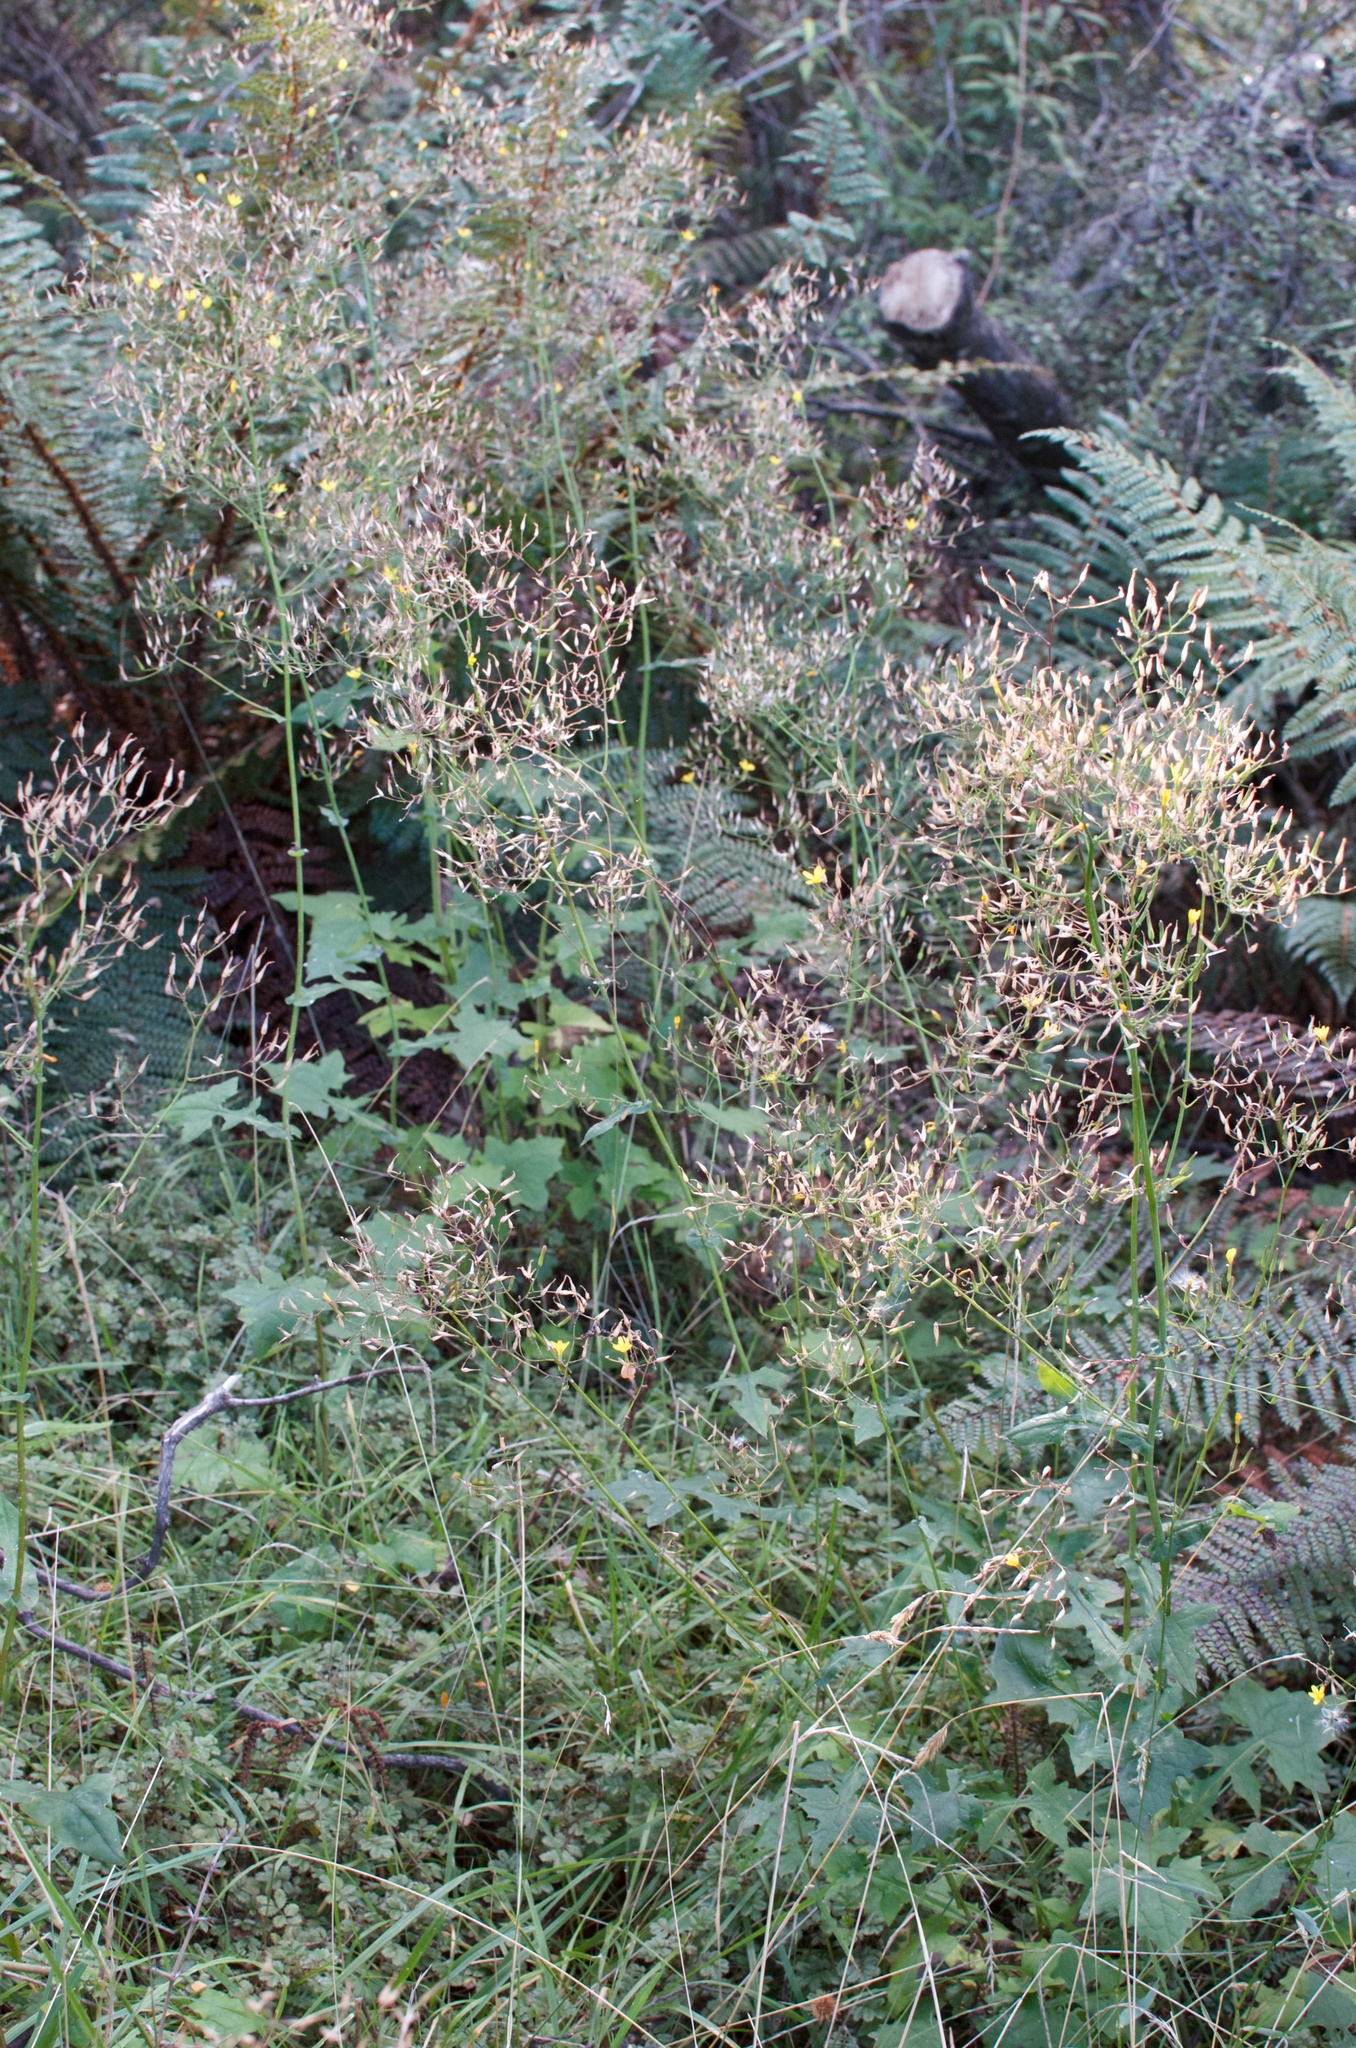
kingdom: Plantae
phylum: Tracheophyta
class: Magnoliopsida
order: Asterales
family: Asteraceae
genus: Mycelis
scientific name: Mycelis muralis
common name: Wall lettuce
